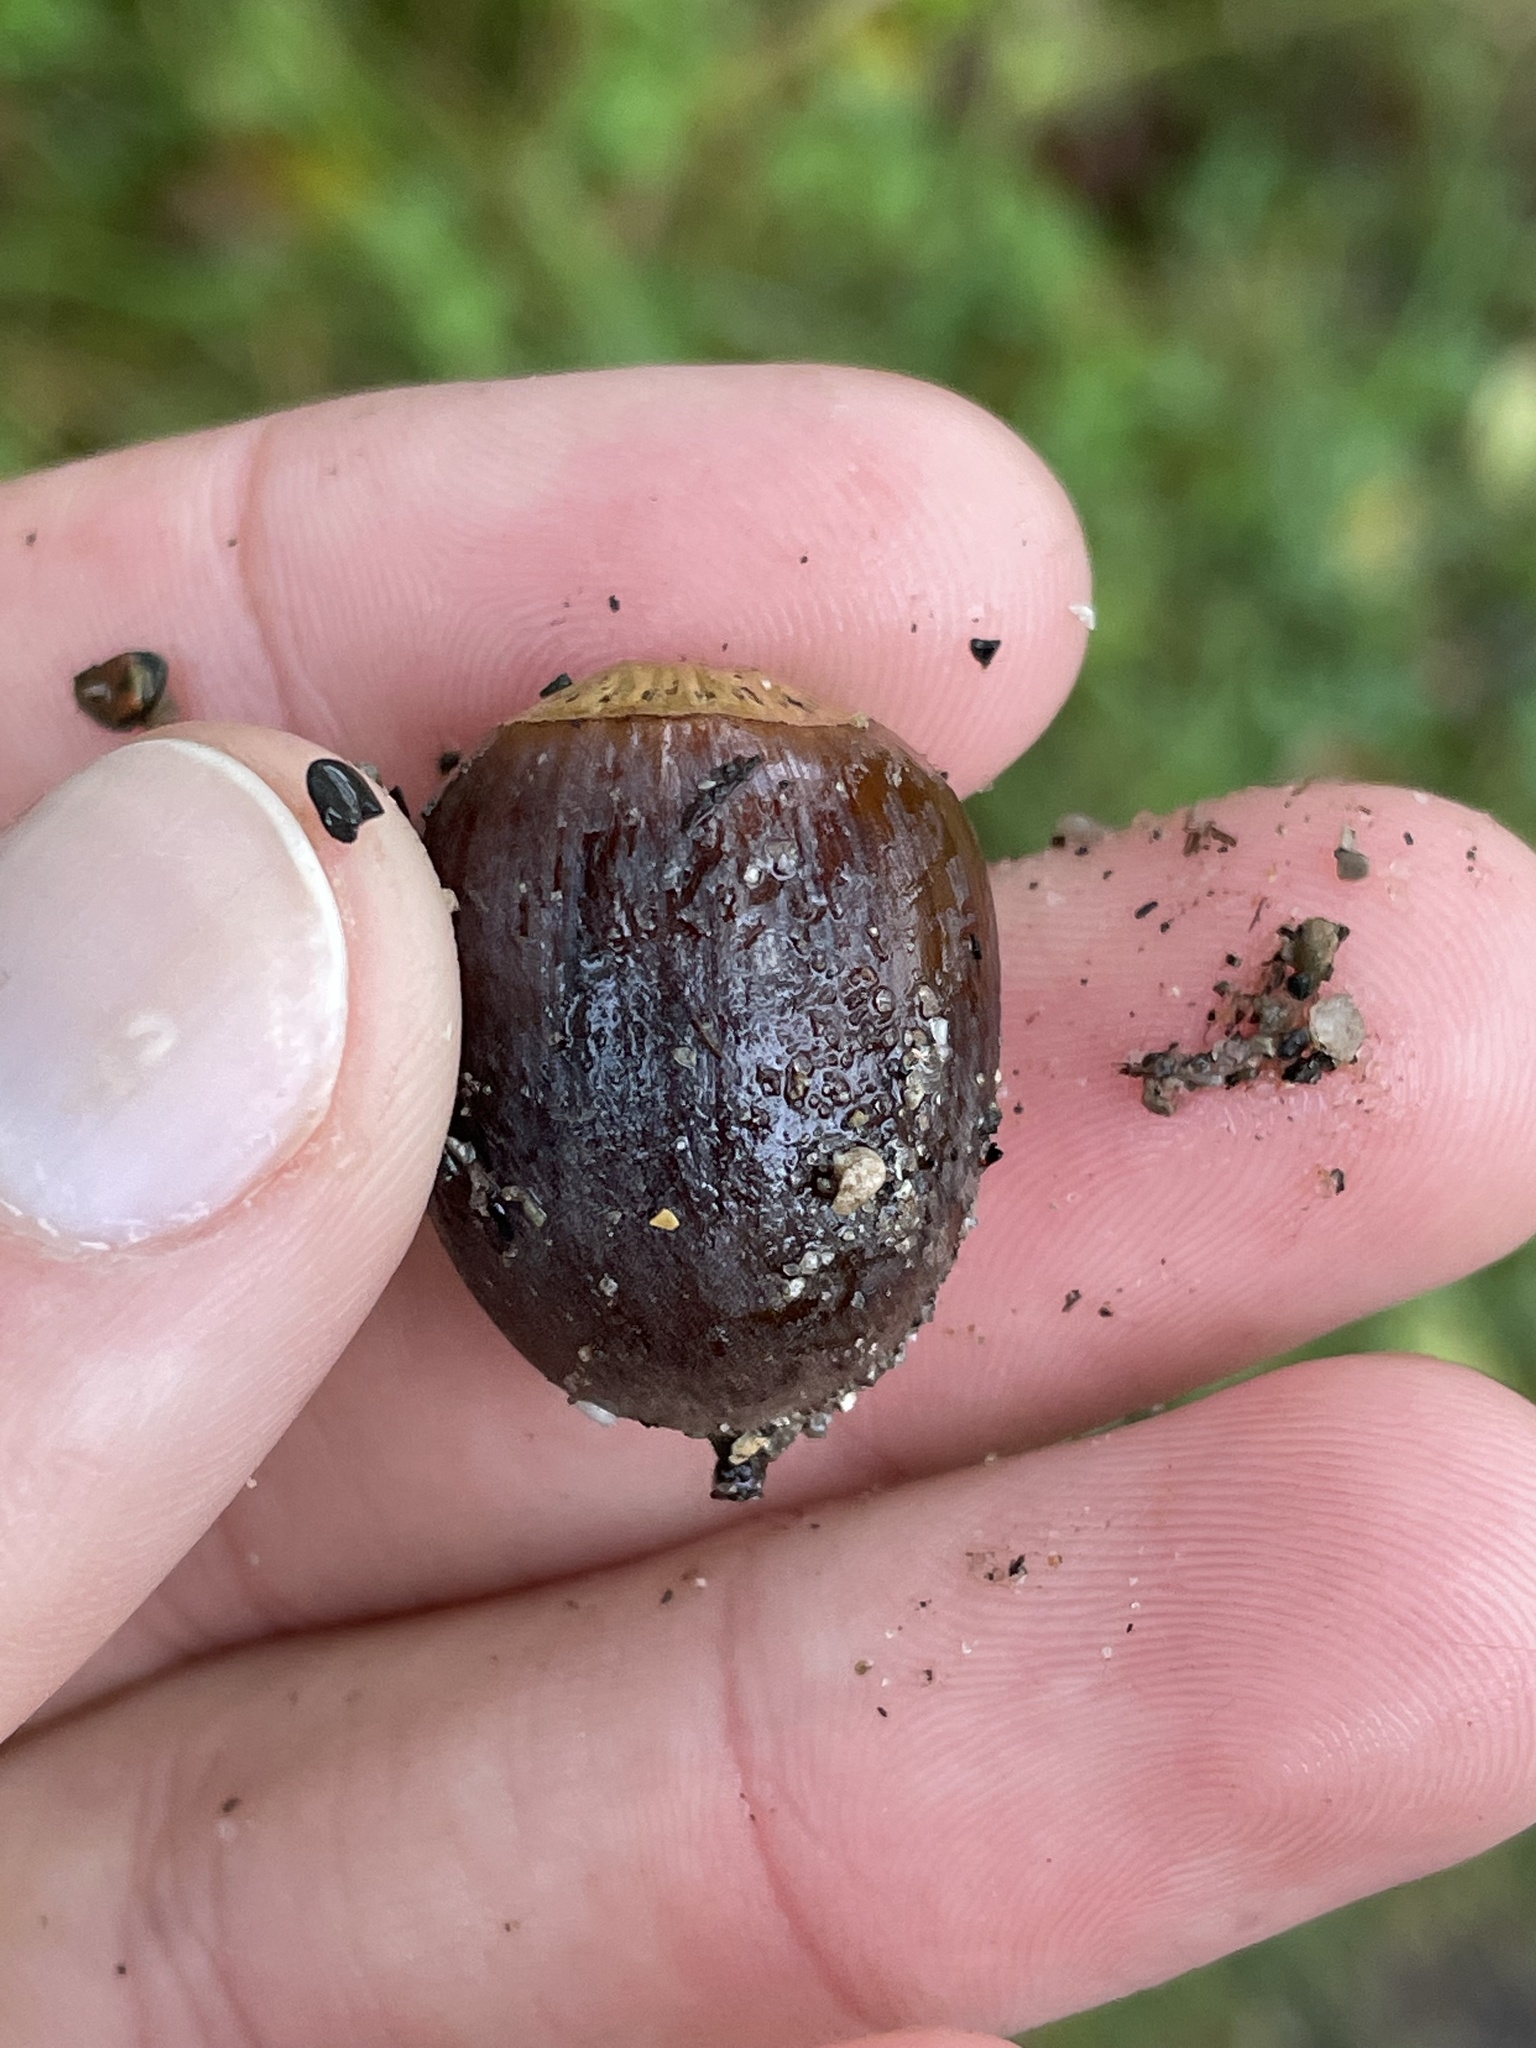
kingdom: Plantae
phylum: Tracheophyta
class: Magnoliopsida
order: Fagales
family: Fagaceae
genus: Quercus
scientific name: Quercus macrocarpa
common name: Bur oak
